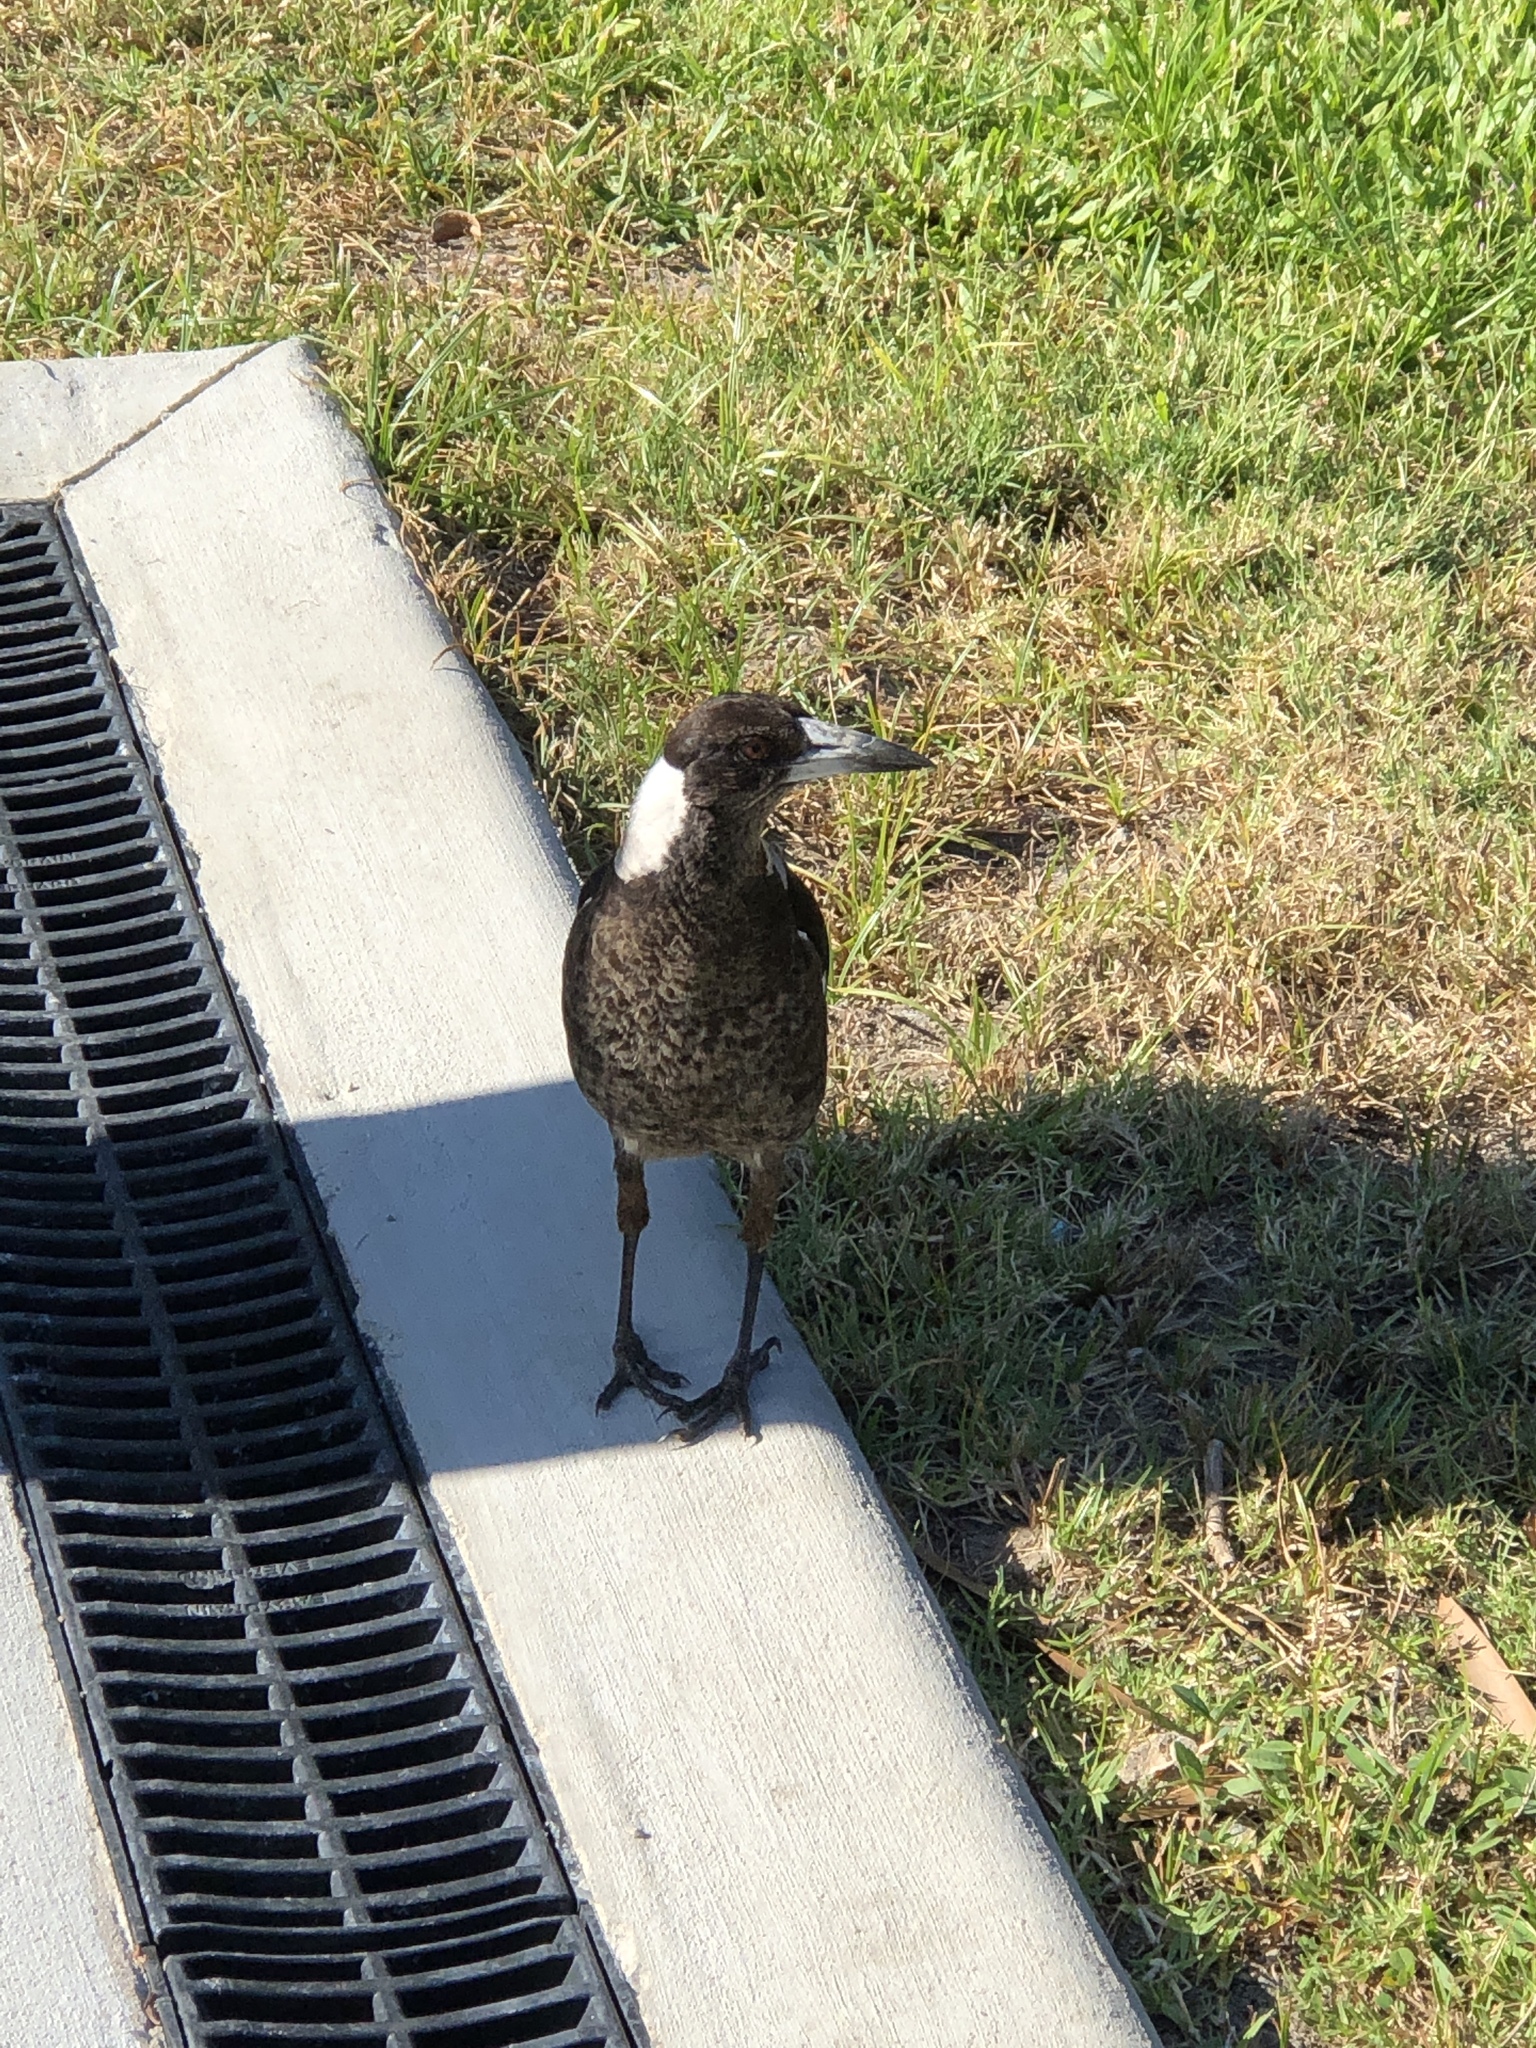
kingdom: Animalia
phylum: Chordata
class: Aves
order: Passeriformes
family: Cracticidae
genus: Gymnorhina
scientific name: Gymnorhina tibicen
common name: Australian magpie
